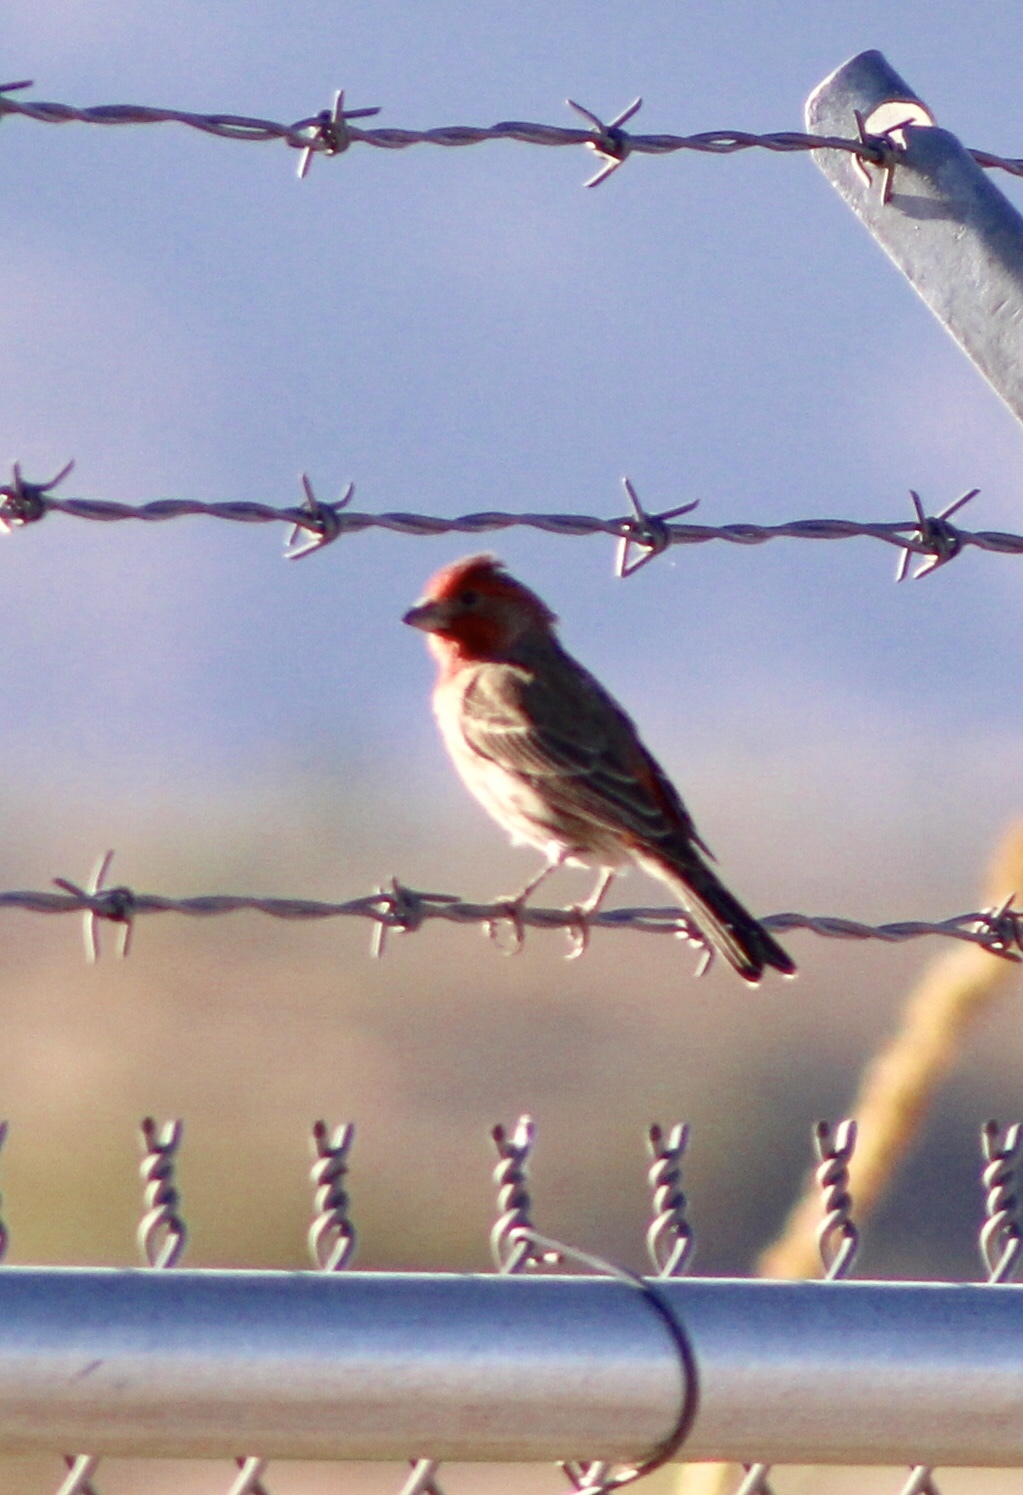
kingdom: Animalia
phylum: Chordata
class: Aves
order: Passeriformes
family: Fringillidae
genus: Haemorhous
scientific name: Haemorhous mexicanus
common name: House finch
